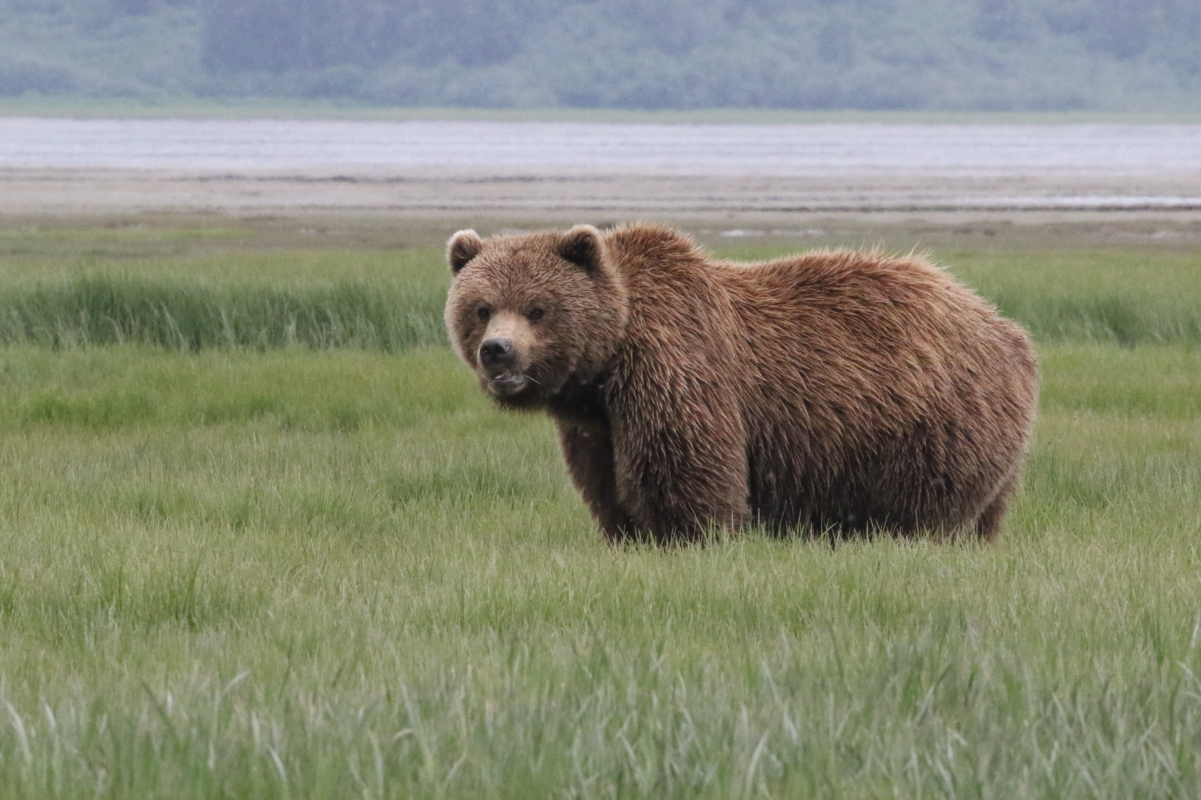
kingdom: Animalia
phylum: Chordata
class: Mammalia
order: Carnivora
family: Ursidae
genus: Ursus
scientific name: Ursus arctos
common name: Brown bear
